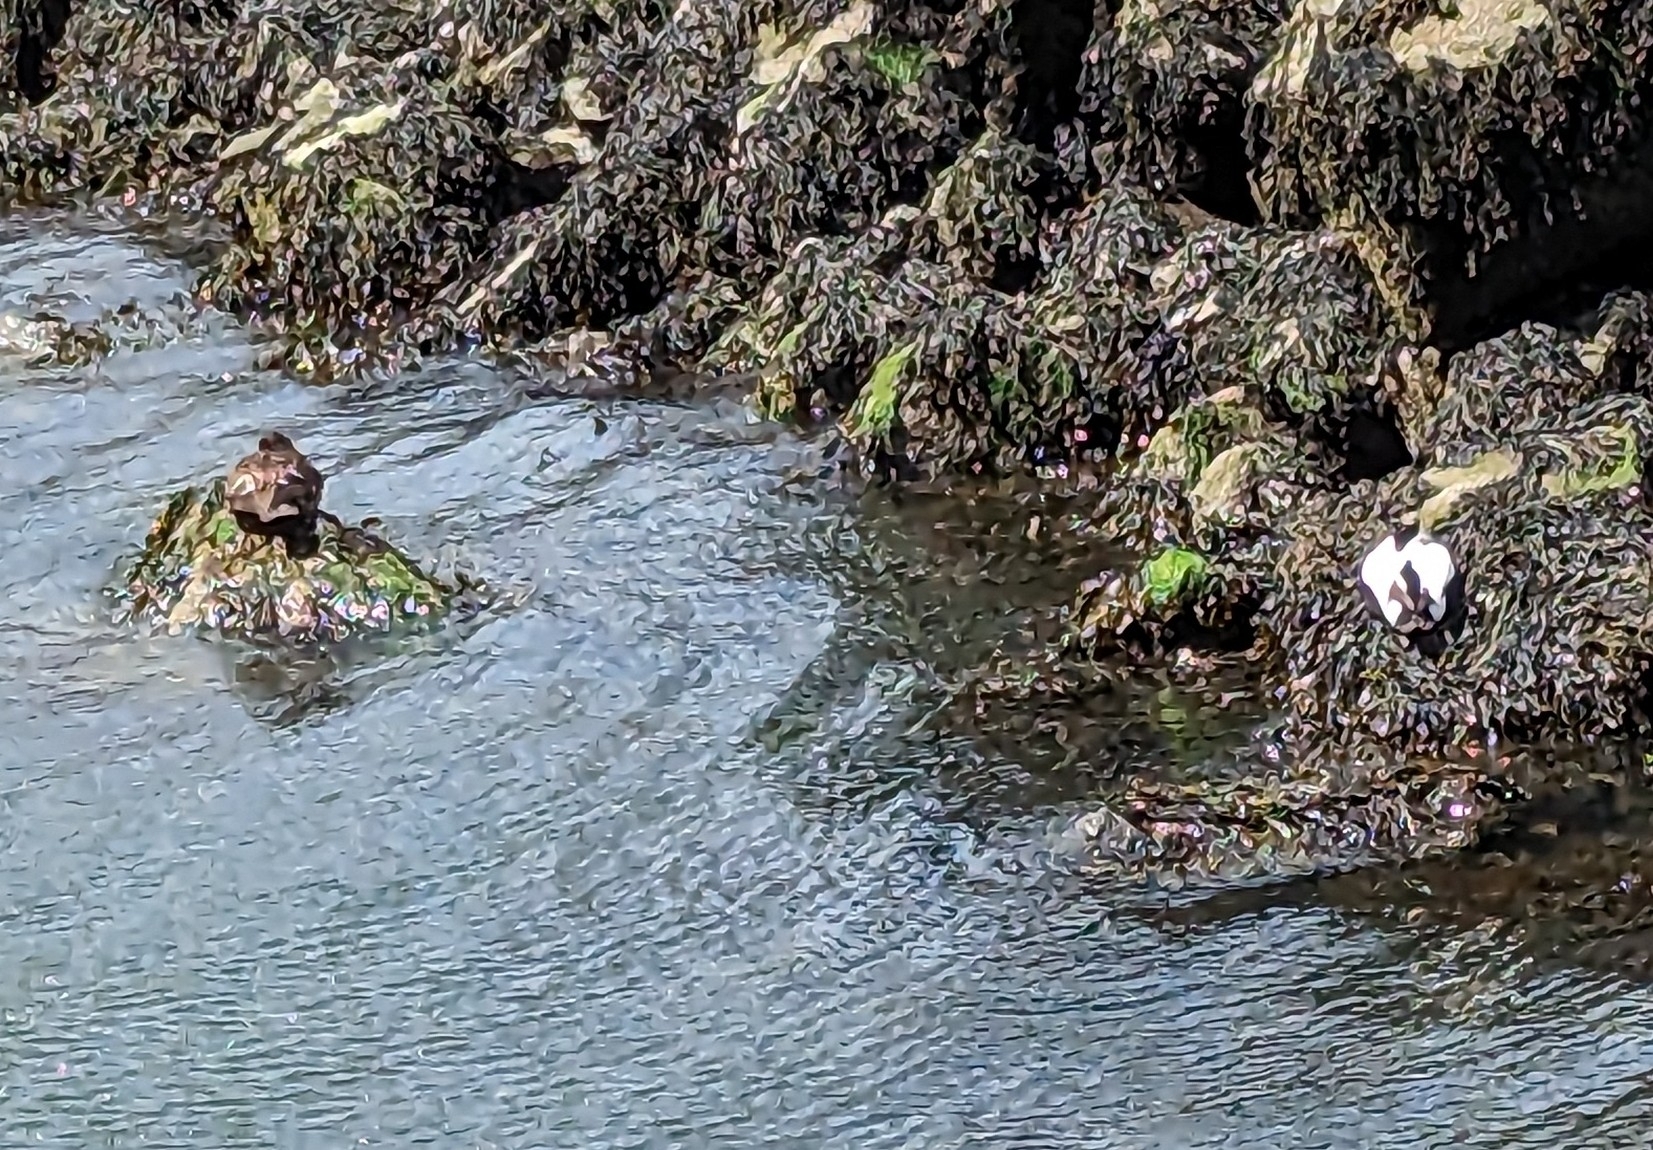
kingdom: Animalia
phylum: Chordata
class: Aves
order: Anseriformes
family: Anatidae
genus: Somateria
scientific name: Somateria mollissima
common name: Common eider
